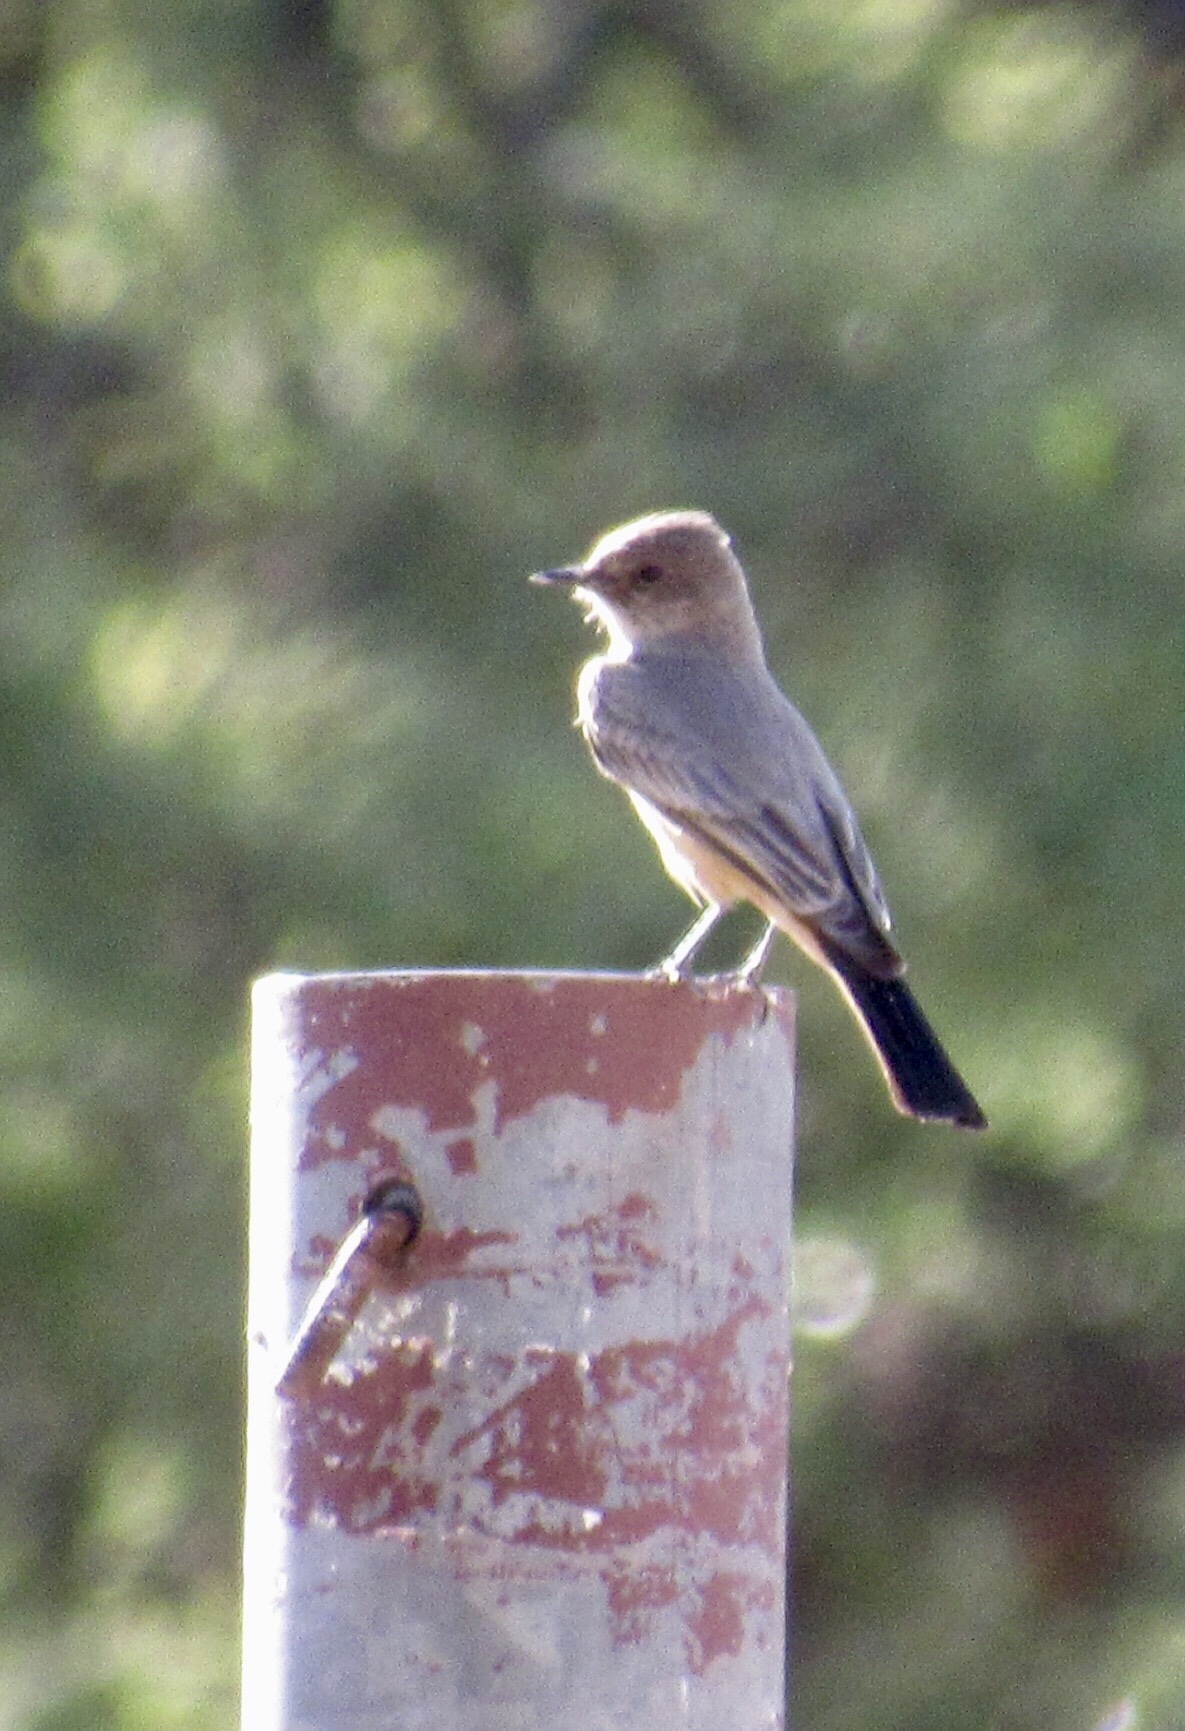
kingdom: Animalia
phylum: Chordata
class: Aves
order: Passeriformes
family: Tyrannidae
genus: Sayornis
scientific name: Sayornis saya
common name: Say's phoebe
